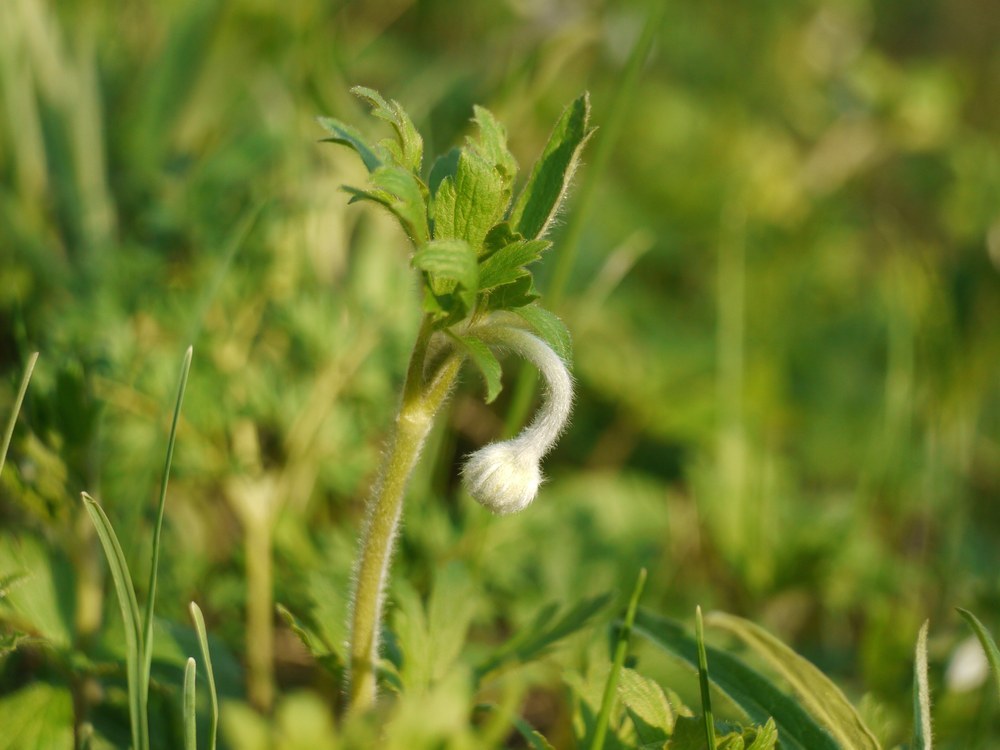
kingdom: Plantae
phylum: Tracheophyta
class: Magnoliopsida
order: Ranunculales
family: Ranunculaceae
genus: Anemone
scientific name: Anemone sylvestris
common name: Snowdrop anemone
